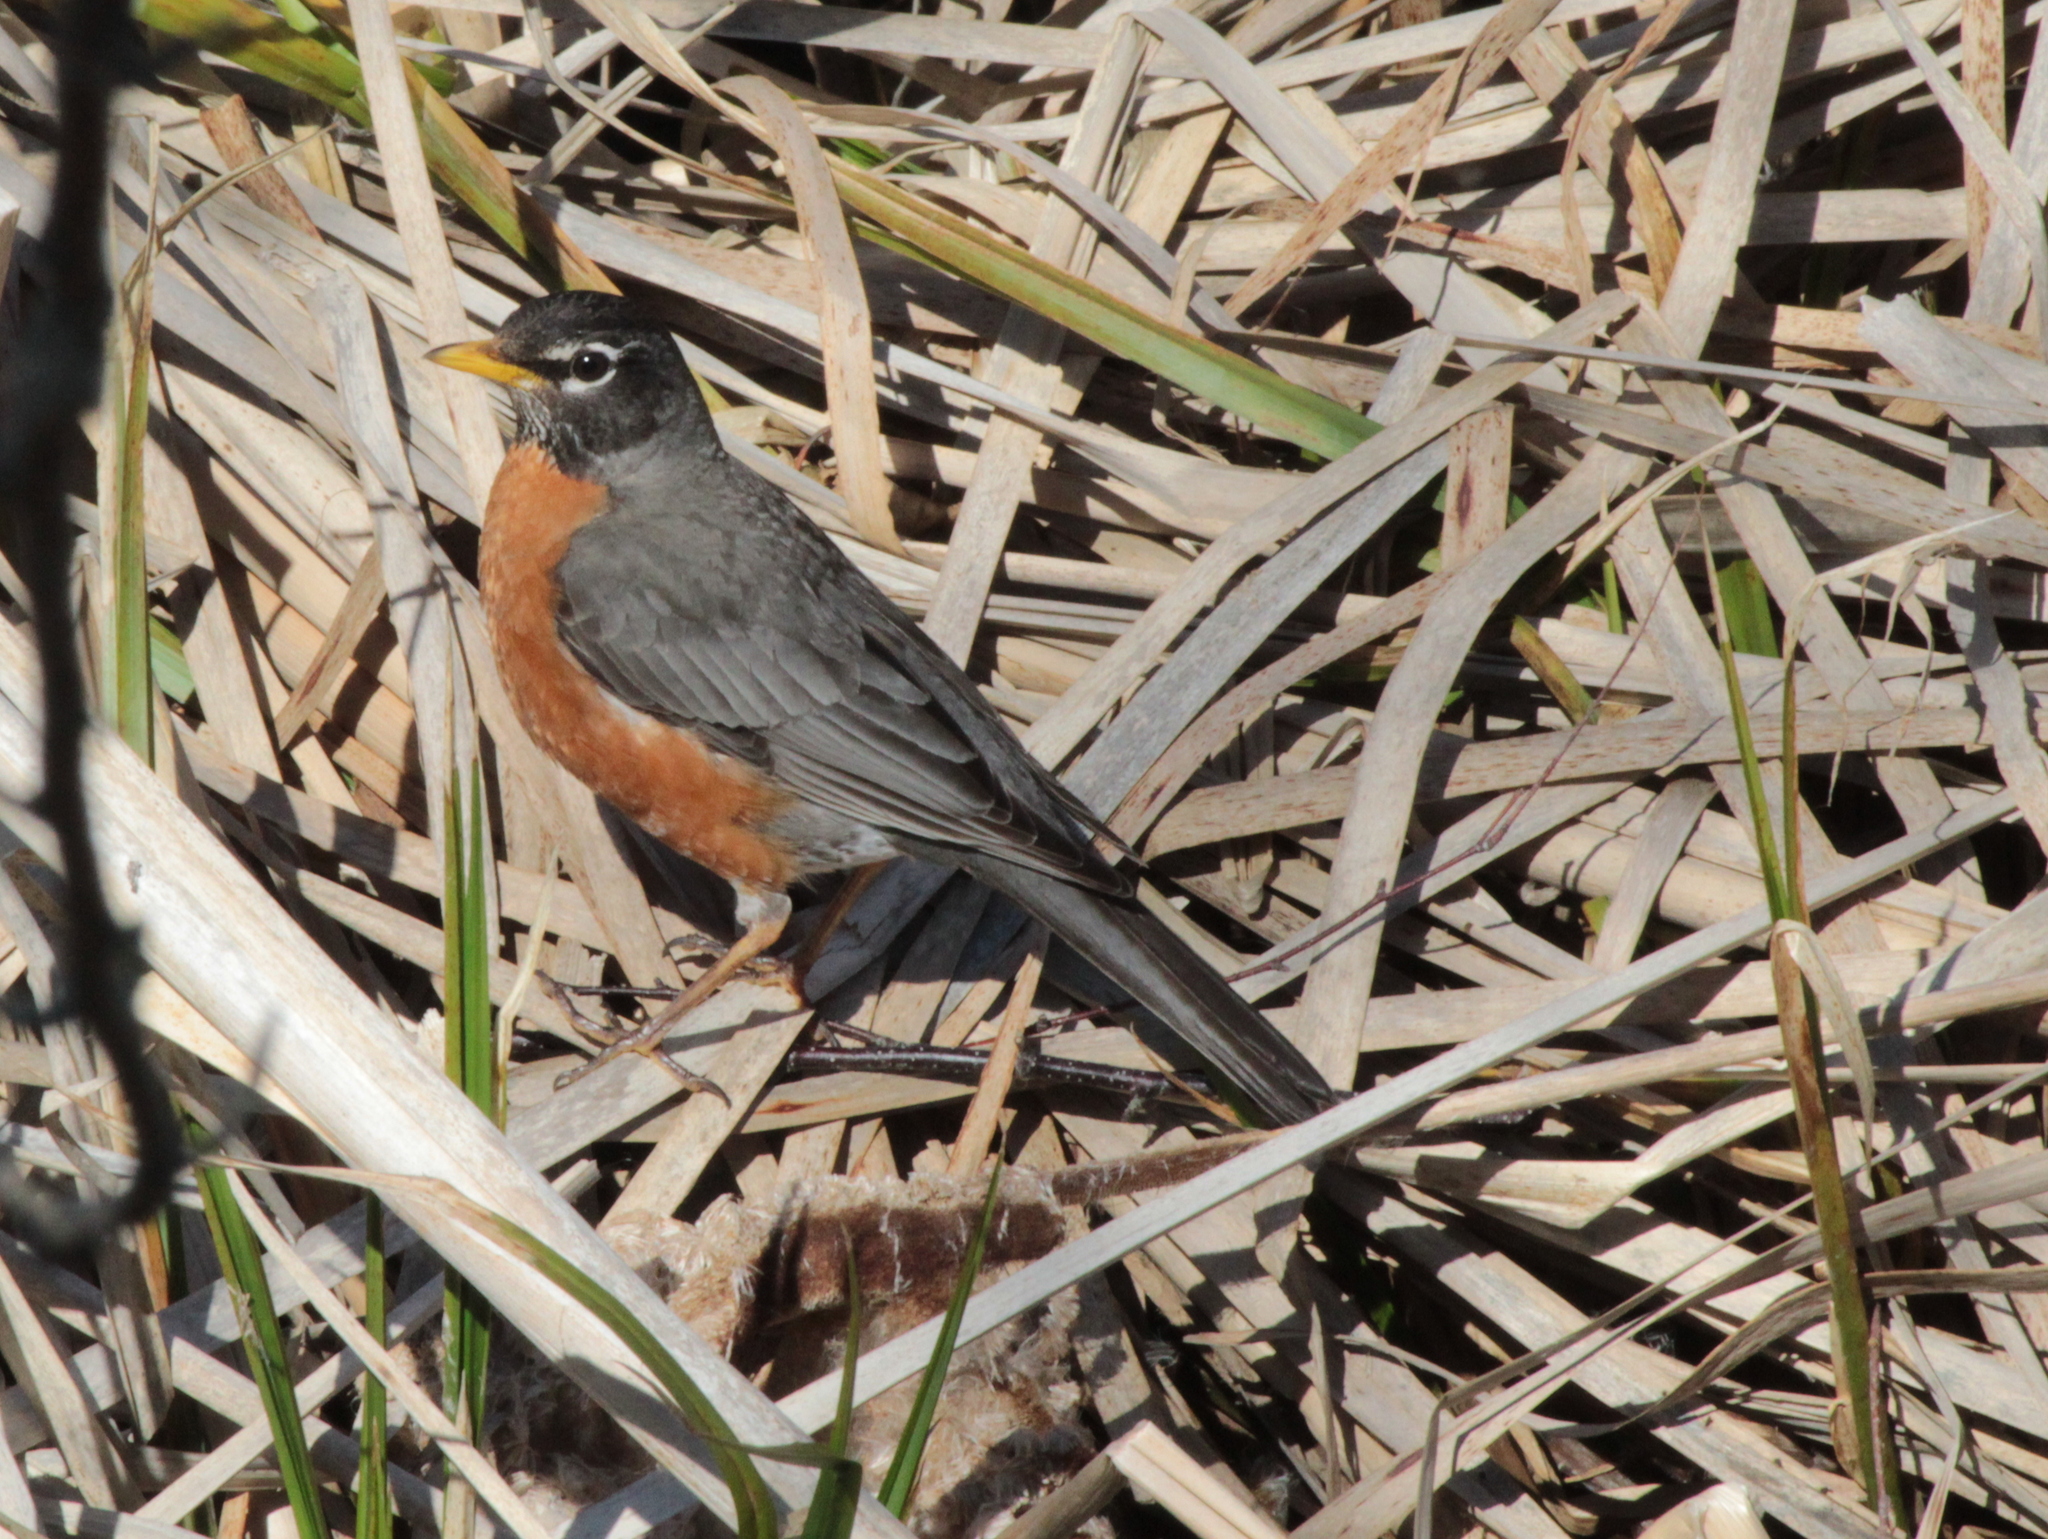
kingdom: Animalia
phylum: Chordata
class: Aves
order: Passeriformes
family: Turdidae
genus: Turdus
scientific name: Turdus migratorius
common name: American robin
